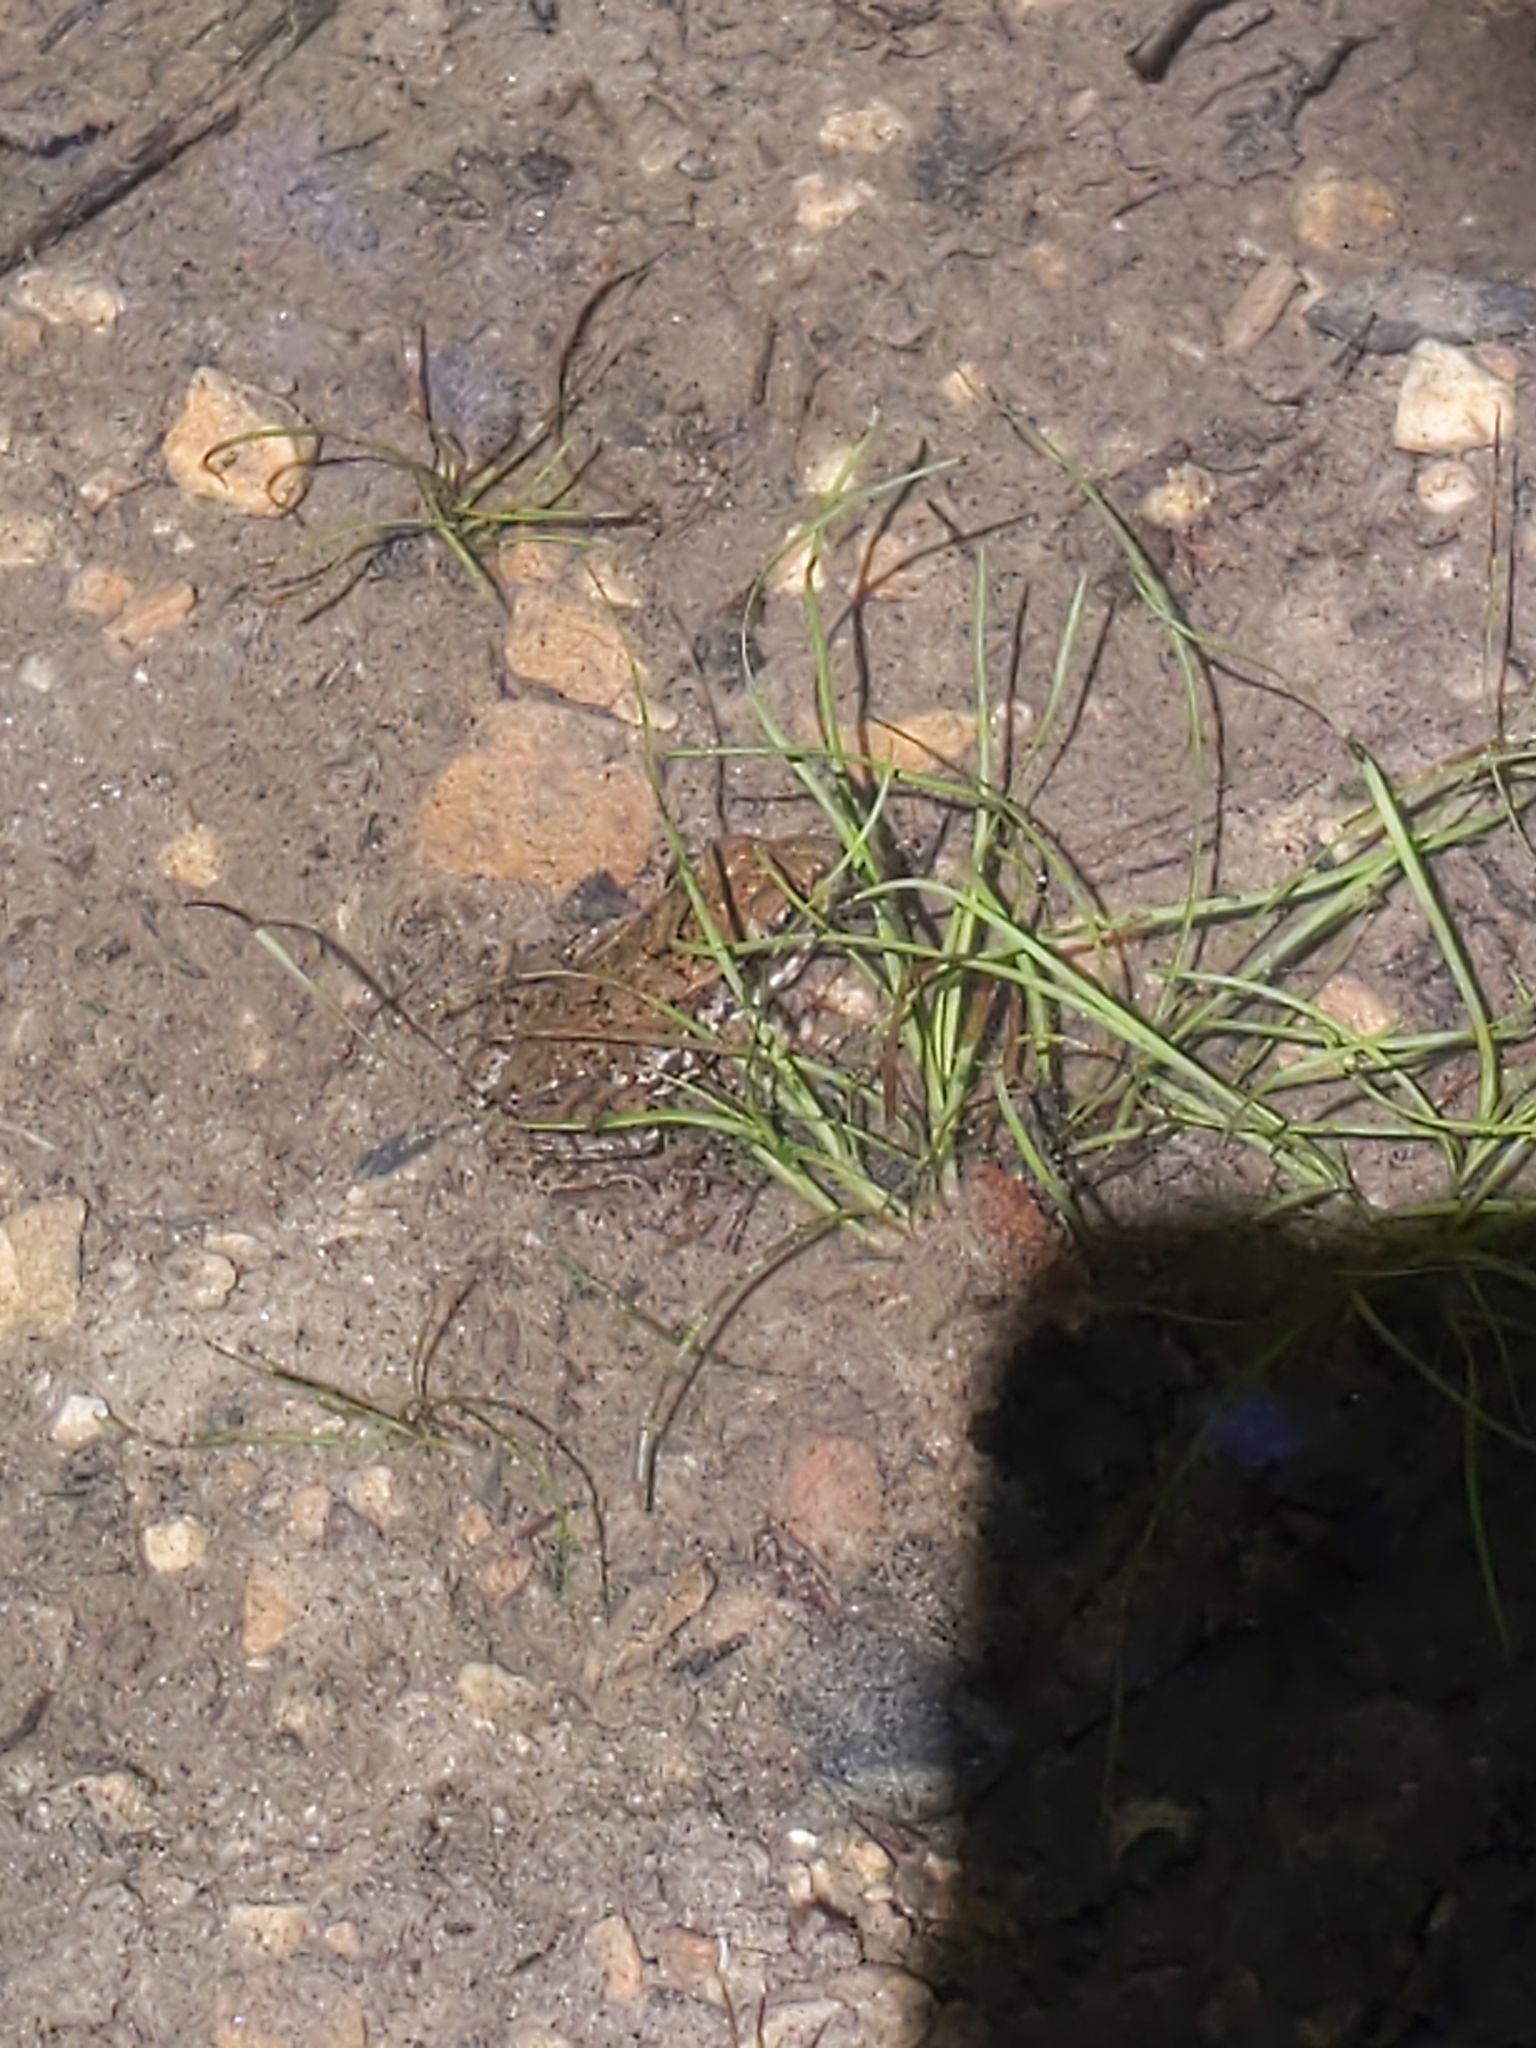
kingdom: Animalia
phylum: Chordata
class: Amphibia
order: Anura
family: Ranidae
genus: Lithobates
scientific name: Lithobates clamitans
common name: Green frog
